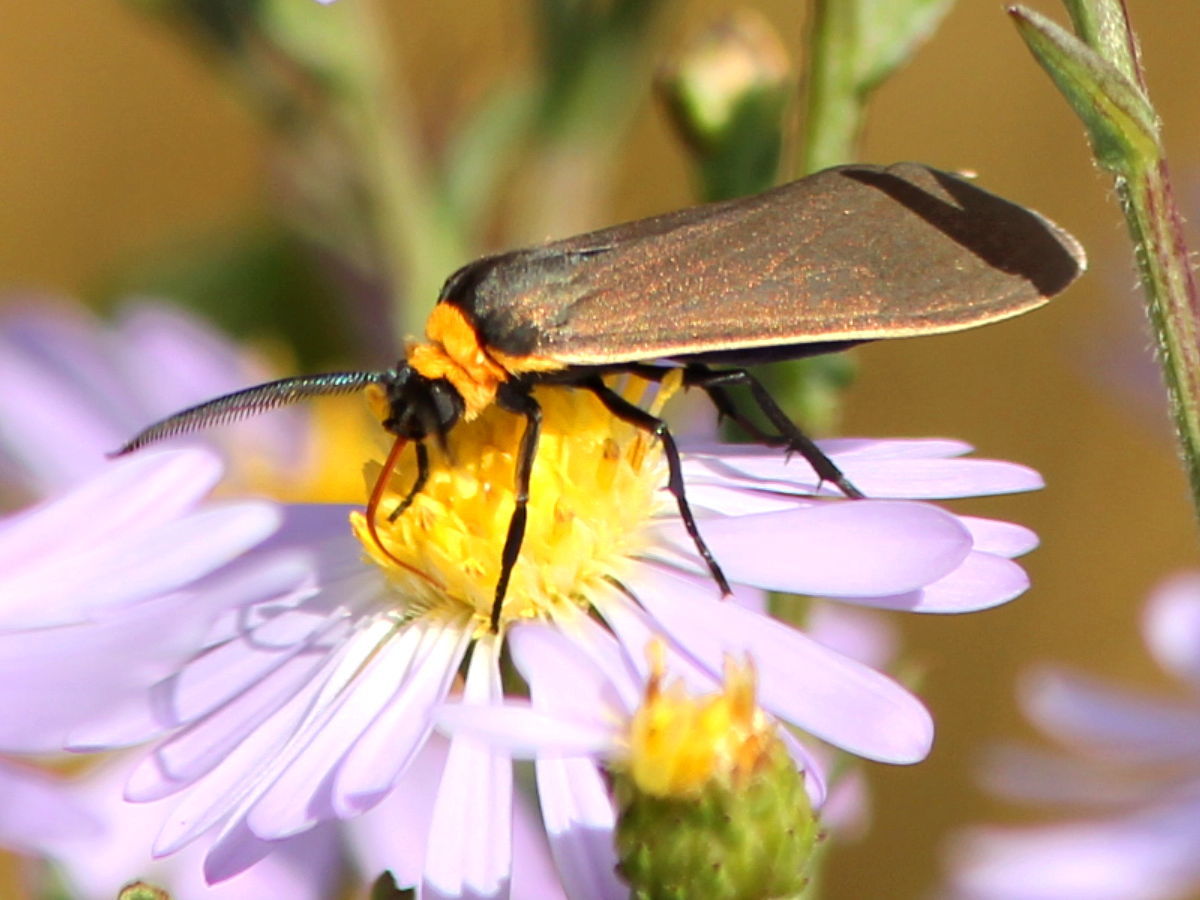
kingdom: Animalia
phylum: Arthropoda
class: Insecta
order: Lepidoptera
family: Erebidae
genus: Cisseps
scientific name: Cisseps fulvicollis
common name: Yellow-collared scape moth
